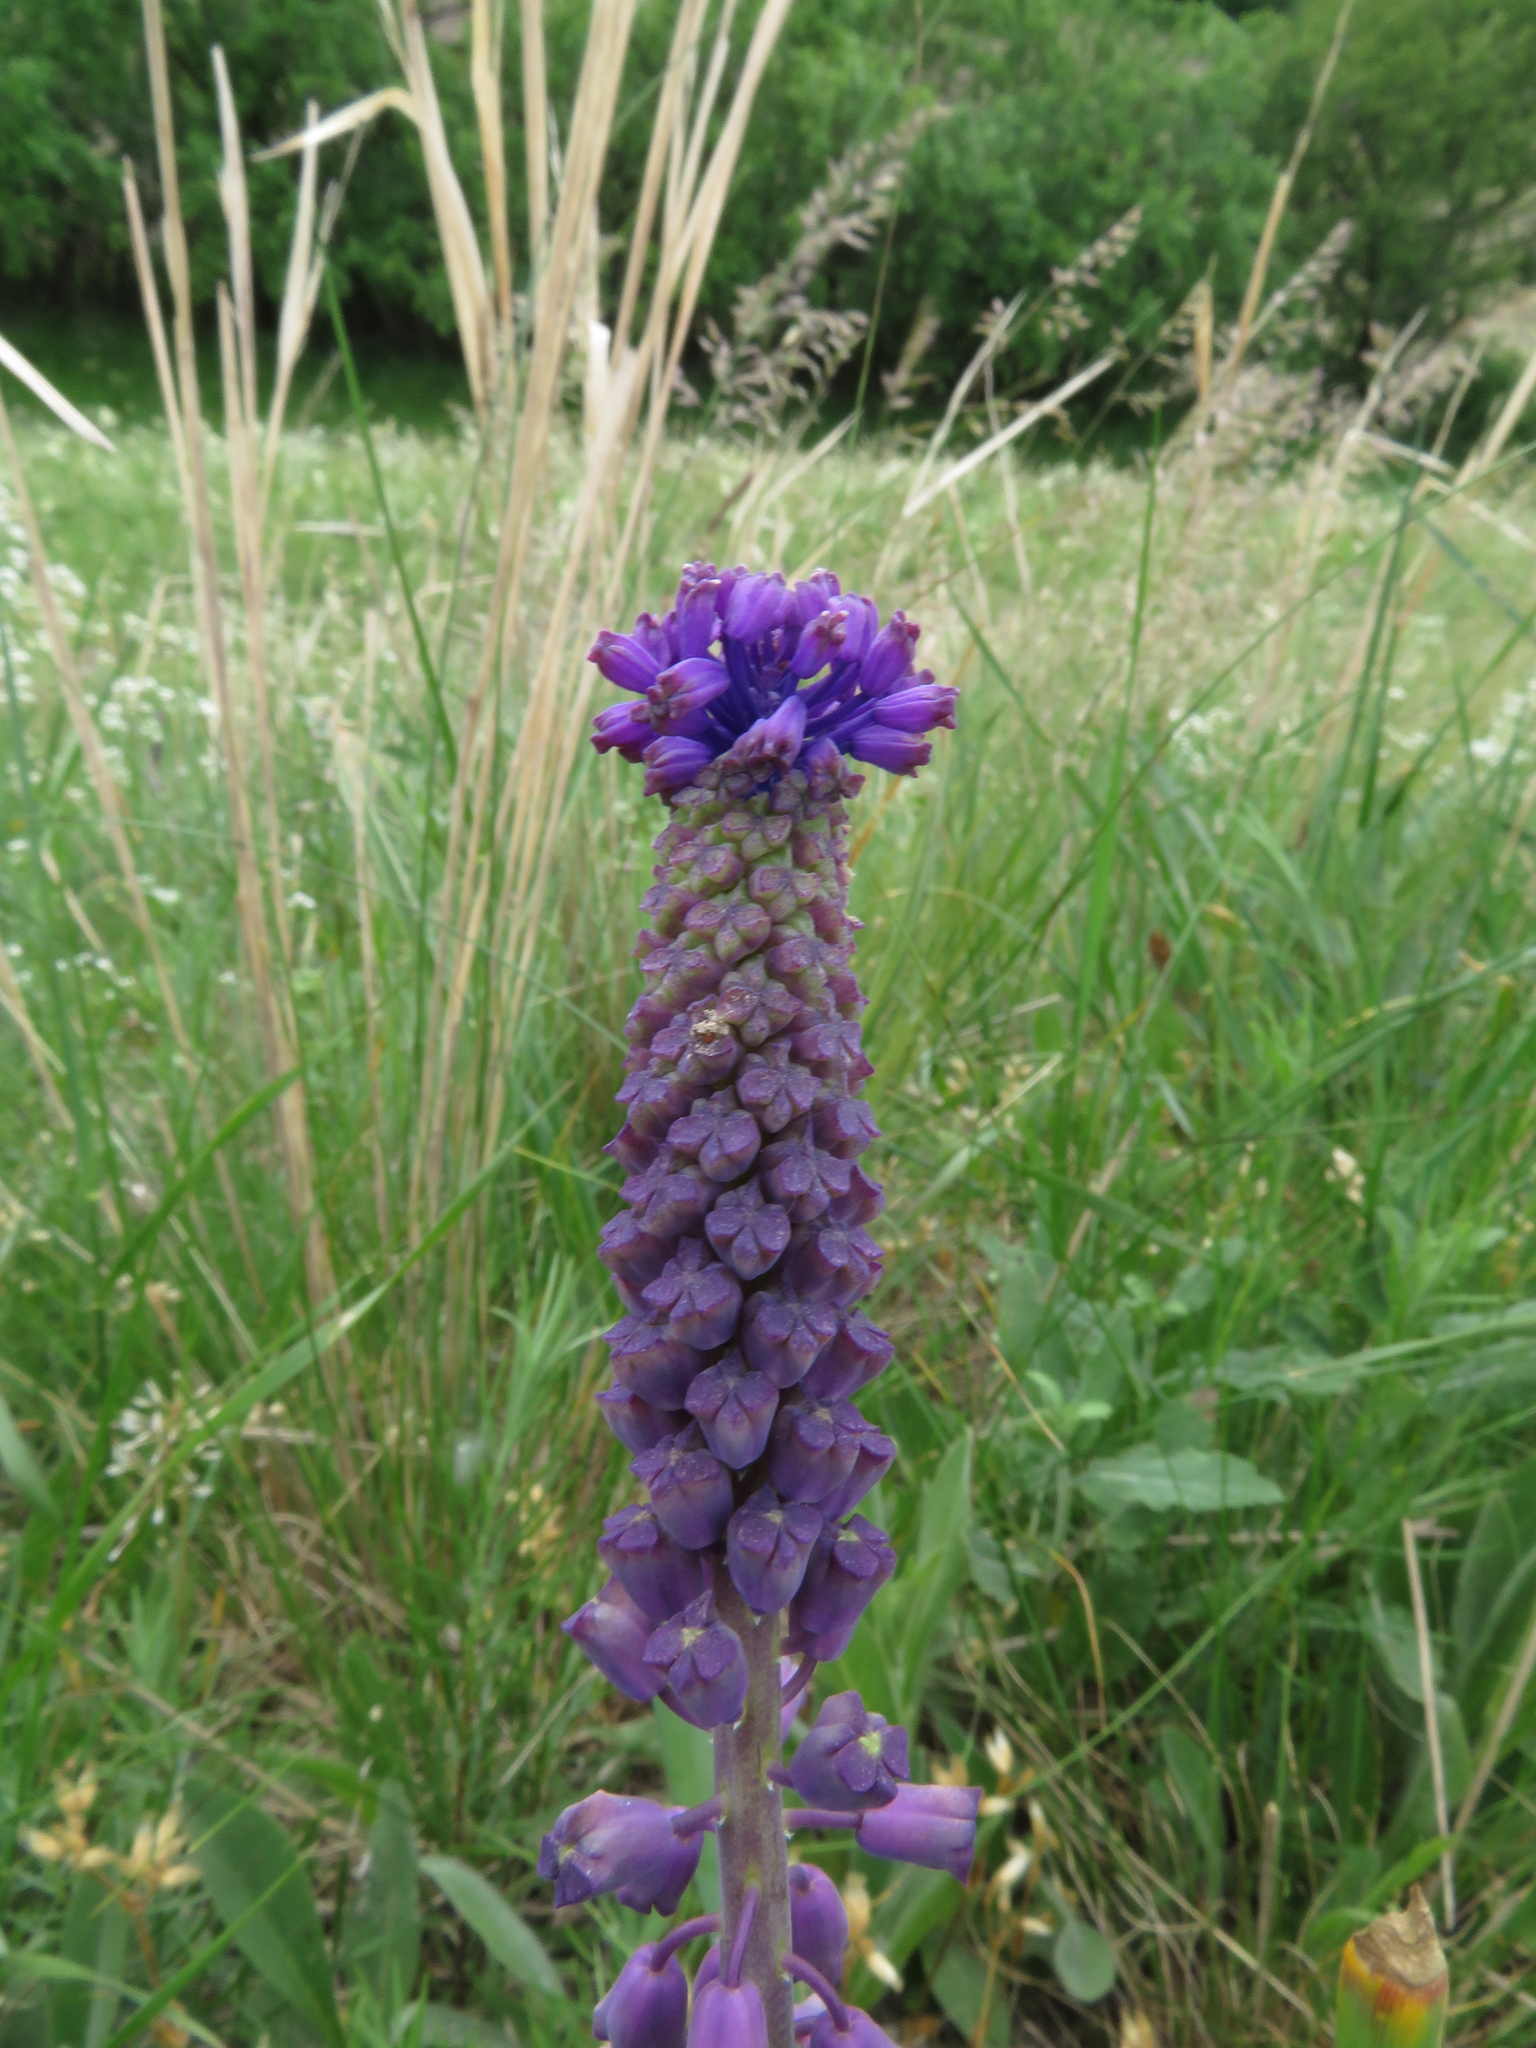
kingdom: Plantae
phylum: Tracheophyta
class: Liliopsida
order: Asparagales
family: Asparagaceae
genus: Muscari
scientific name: Muscari comosum
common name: Tassel hyacinth
